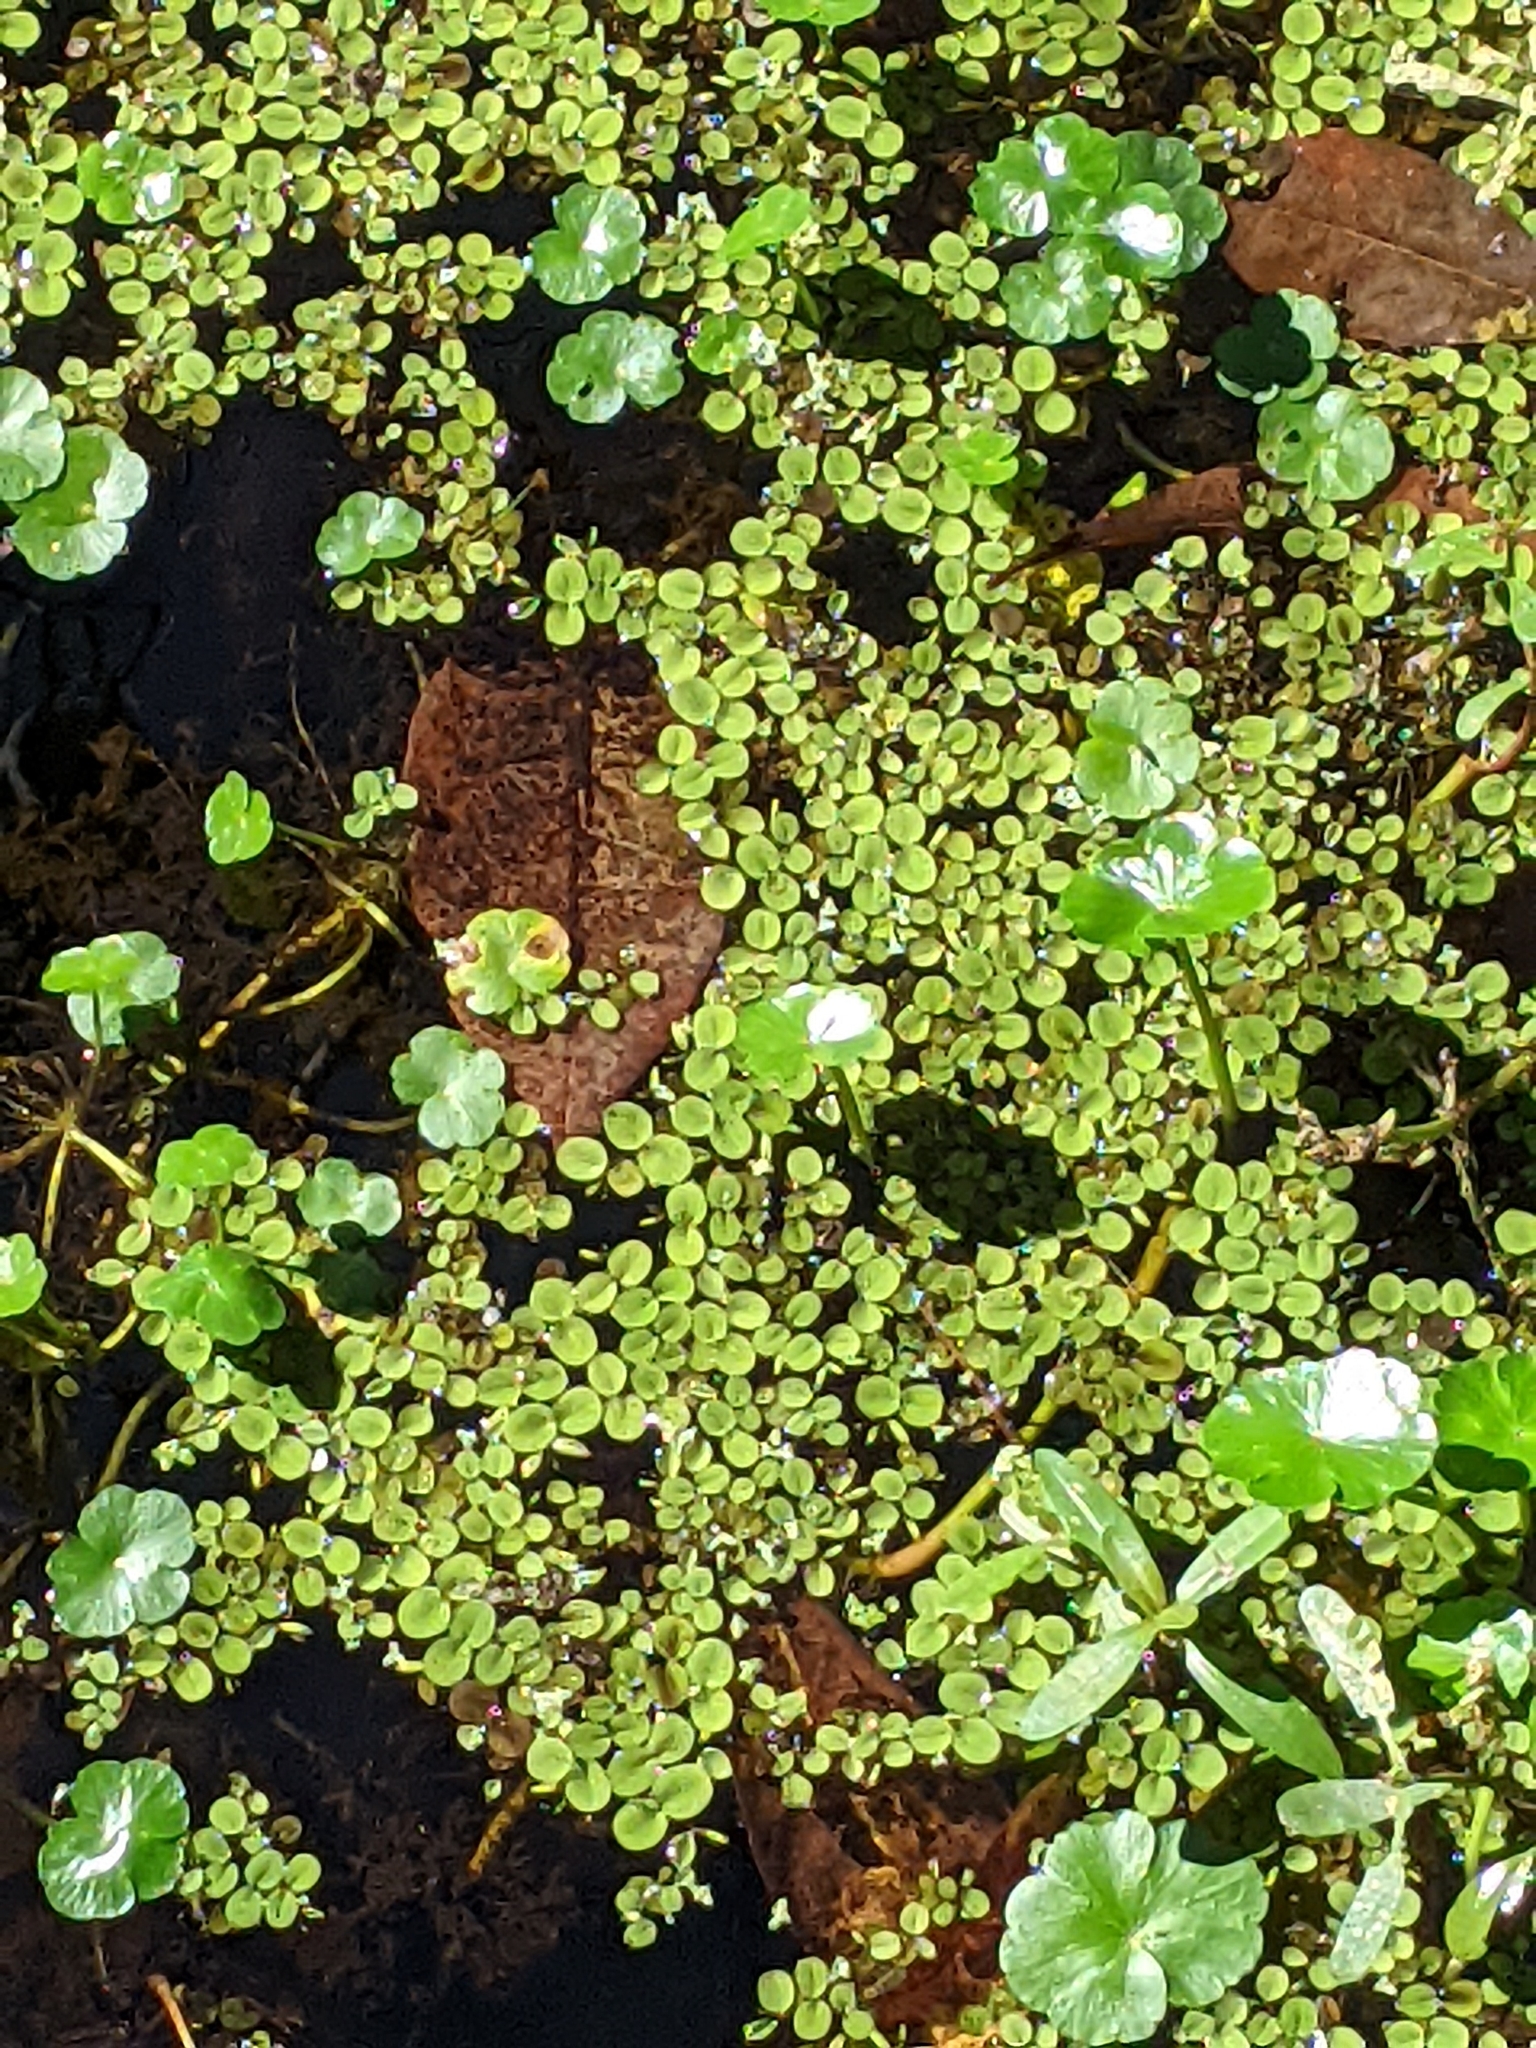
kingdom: Plantae
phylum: Tracheophyta
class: Polypodiopsida
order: Salviniales
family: Salviniaceae
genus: Salvinia
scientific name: Salvinia minima
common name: Water spangles
